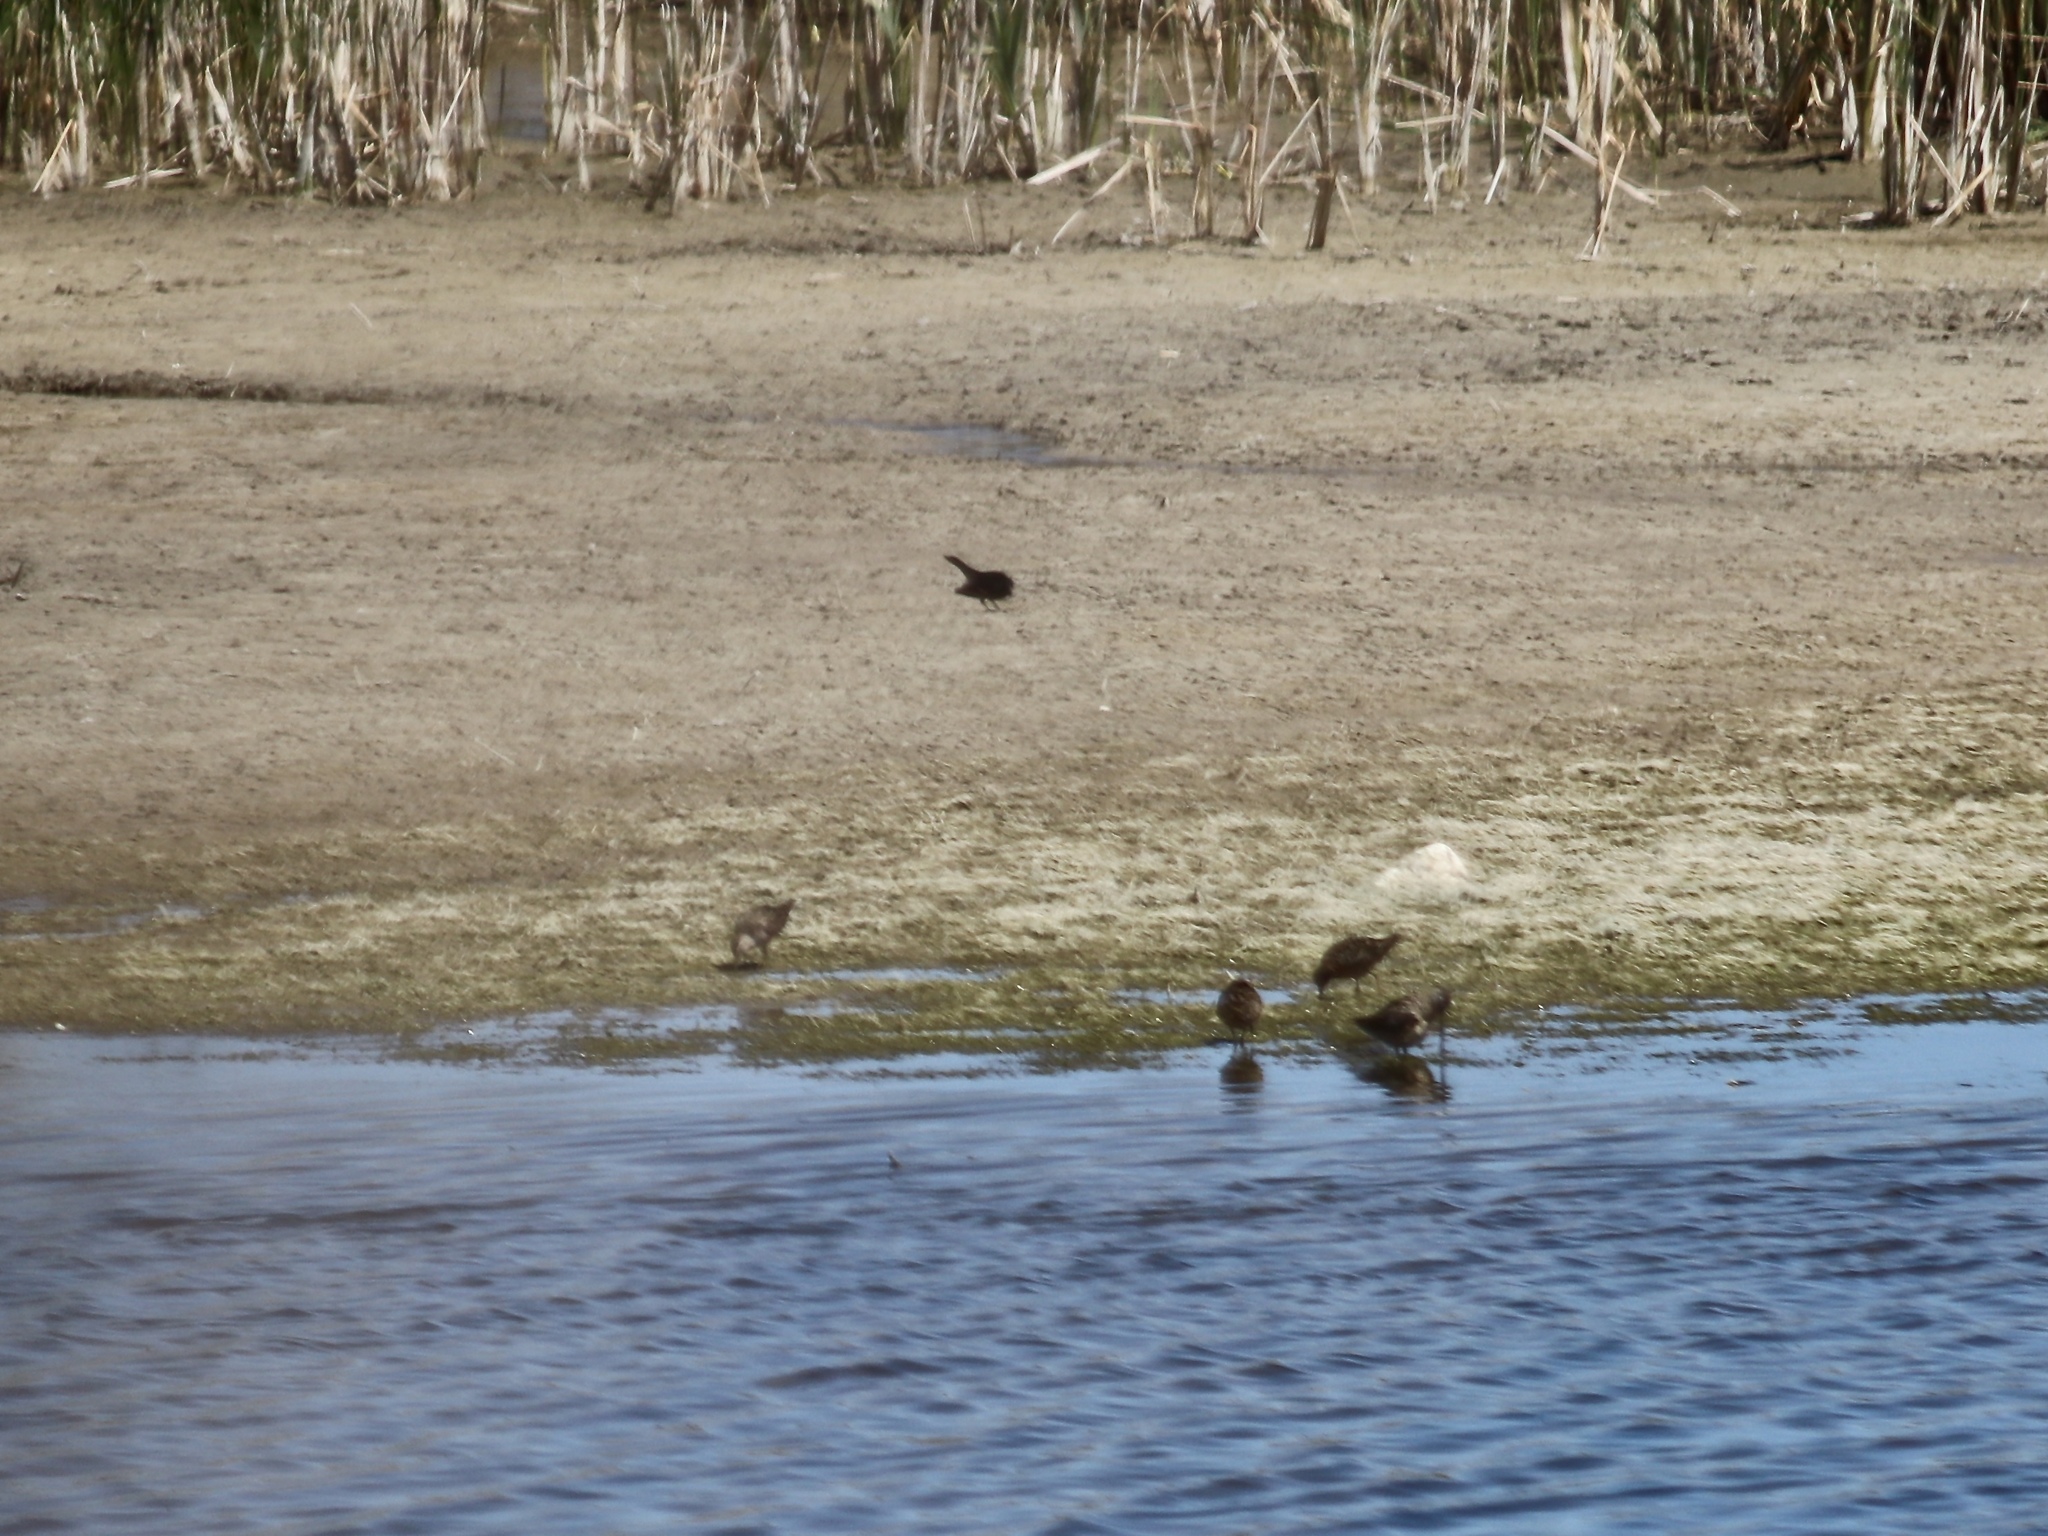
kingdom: Animalia
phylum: Chordata
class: Aves
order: Charadriiformes
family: Scolopacidae
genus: Limnodromus
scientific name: Limnodromus scolopaceus
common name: Long-billed dowitcher
